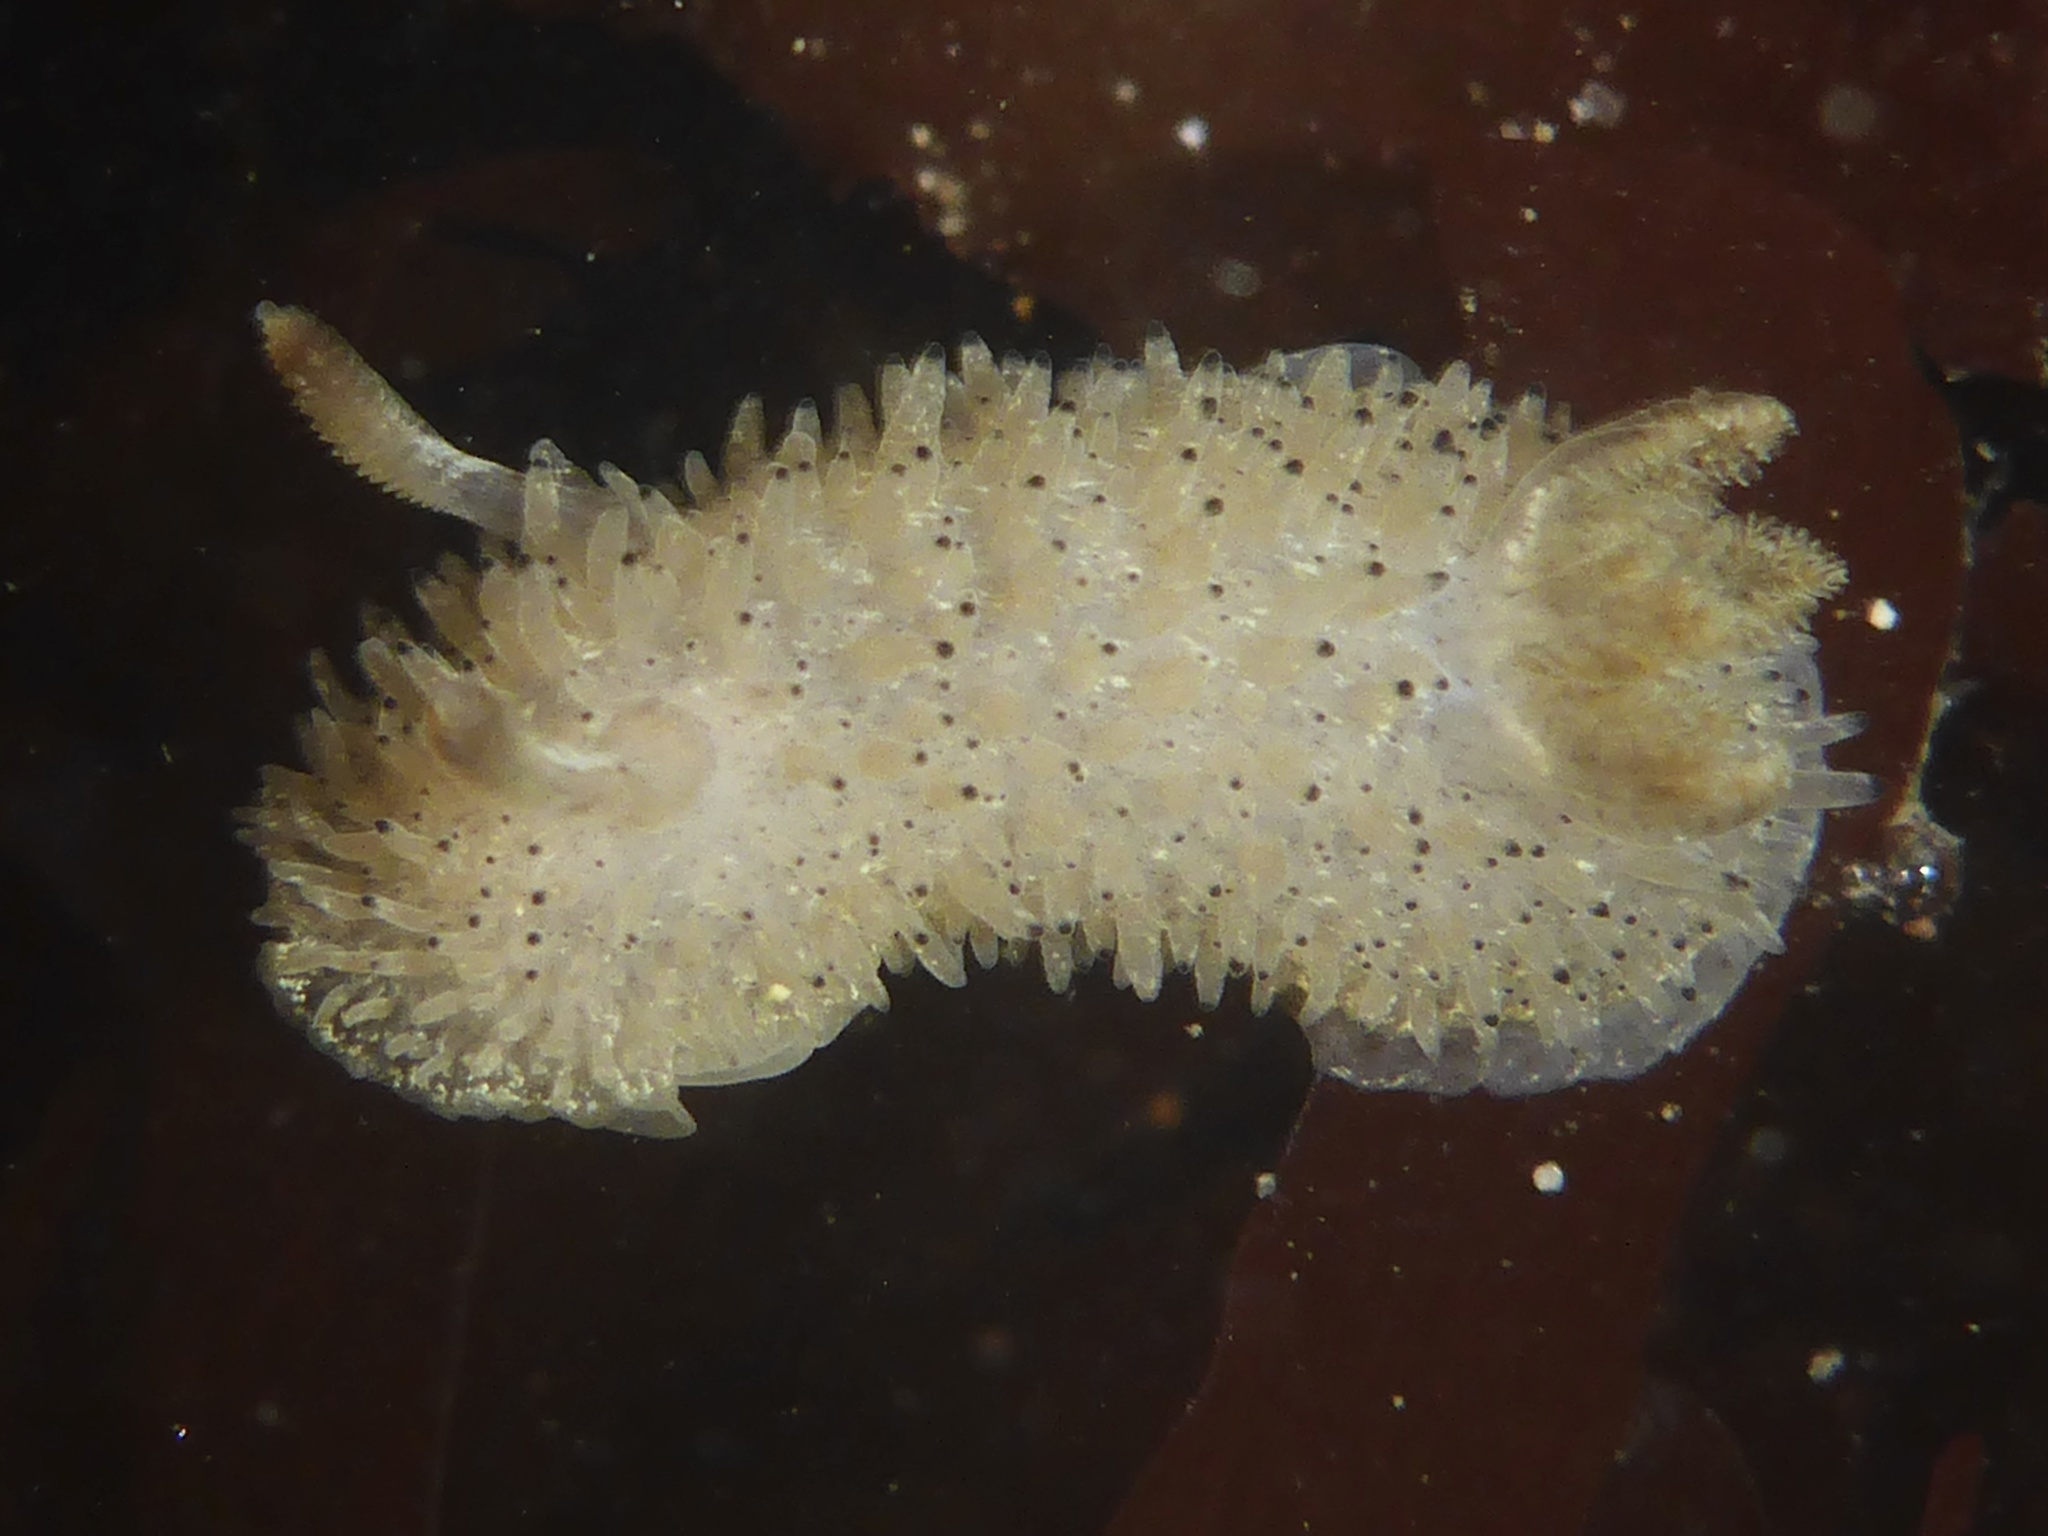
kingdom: Animalia
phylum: Mollusca
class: Gastropoda
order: Nudibranchia
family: Onchidorididae
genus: Acanthodoris
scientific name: Acanthodoris rhodoceras
